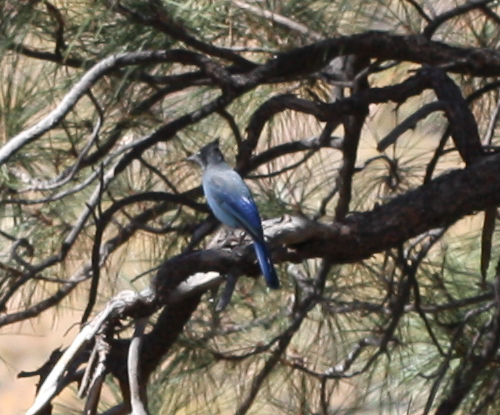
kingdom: Animalia
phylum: Chordata
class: Aves
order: Passeriformes
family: Corvidae
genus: Cyanocitta
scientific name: Cyanocitta stelleri
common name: Steller's jay
